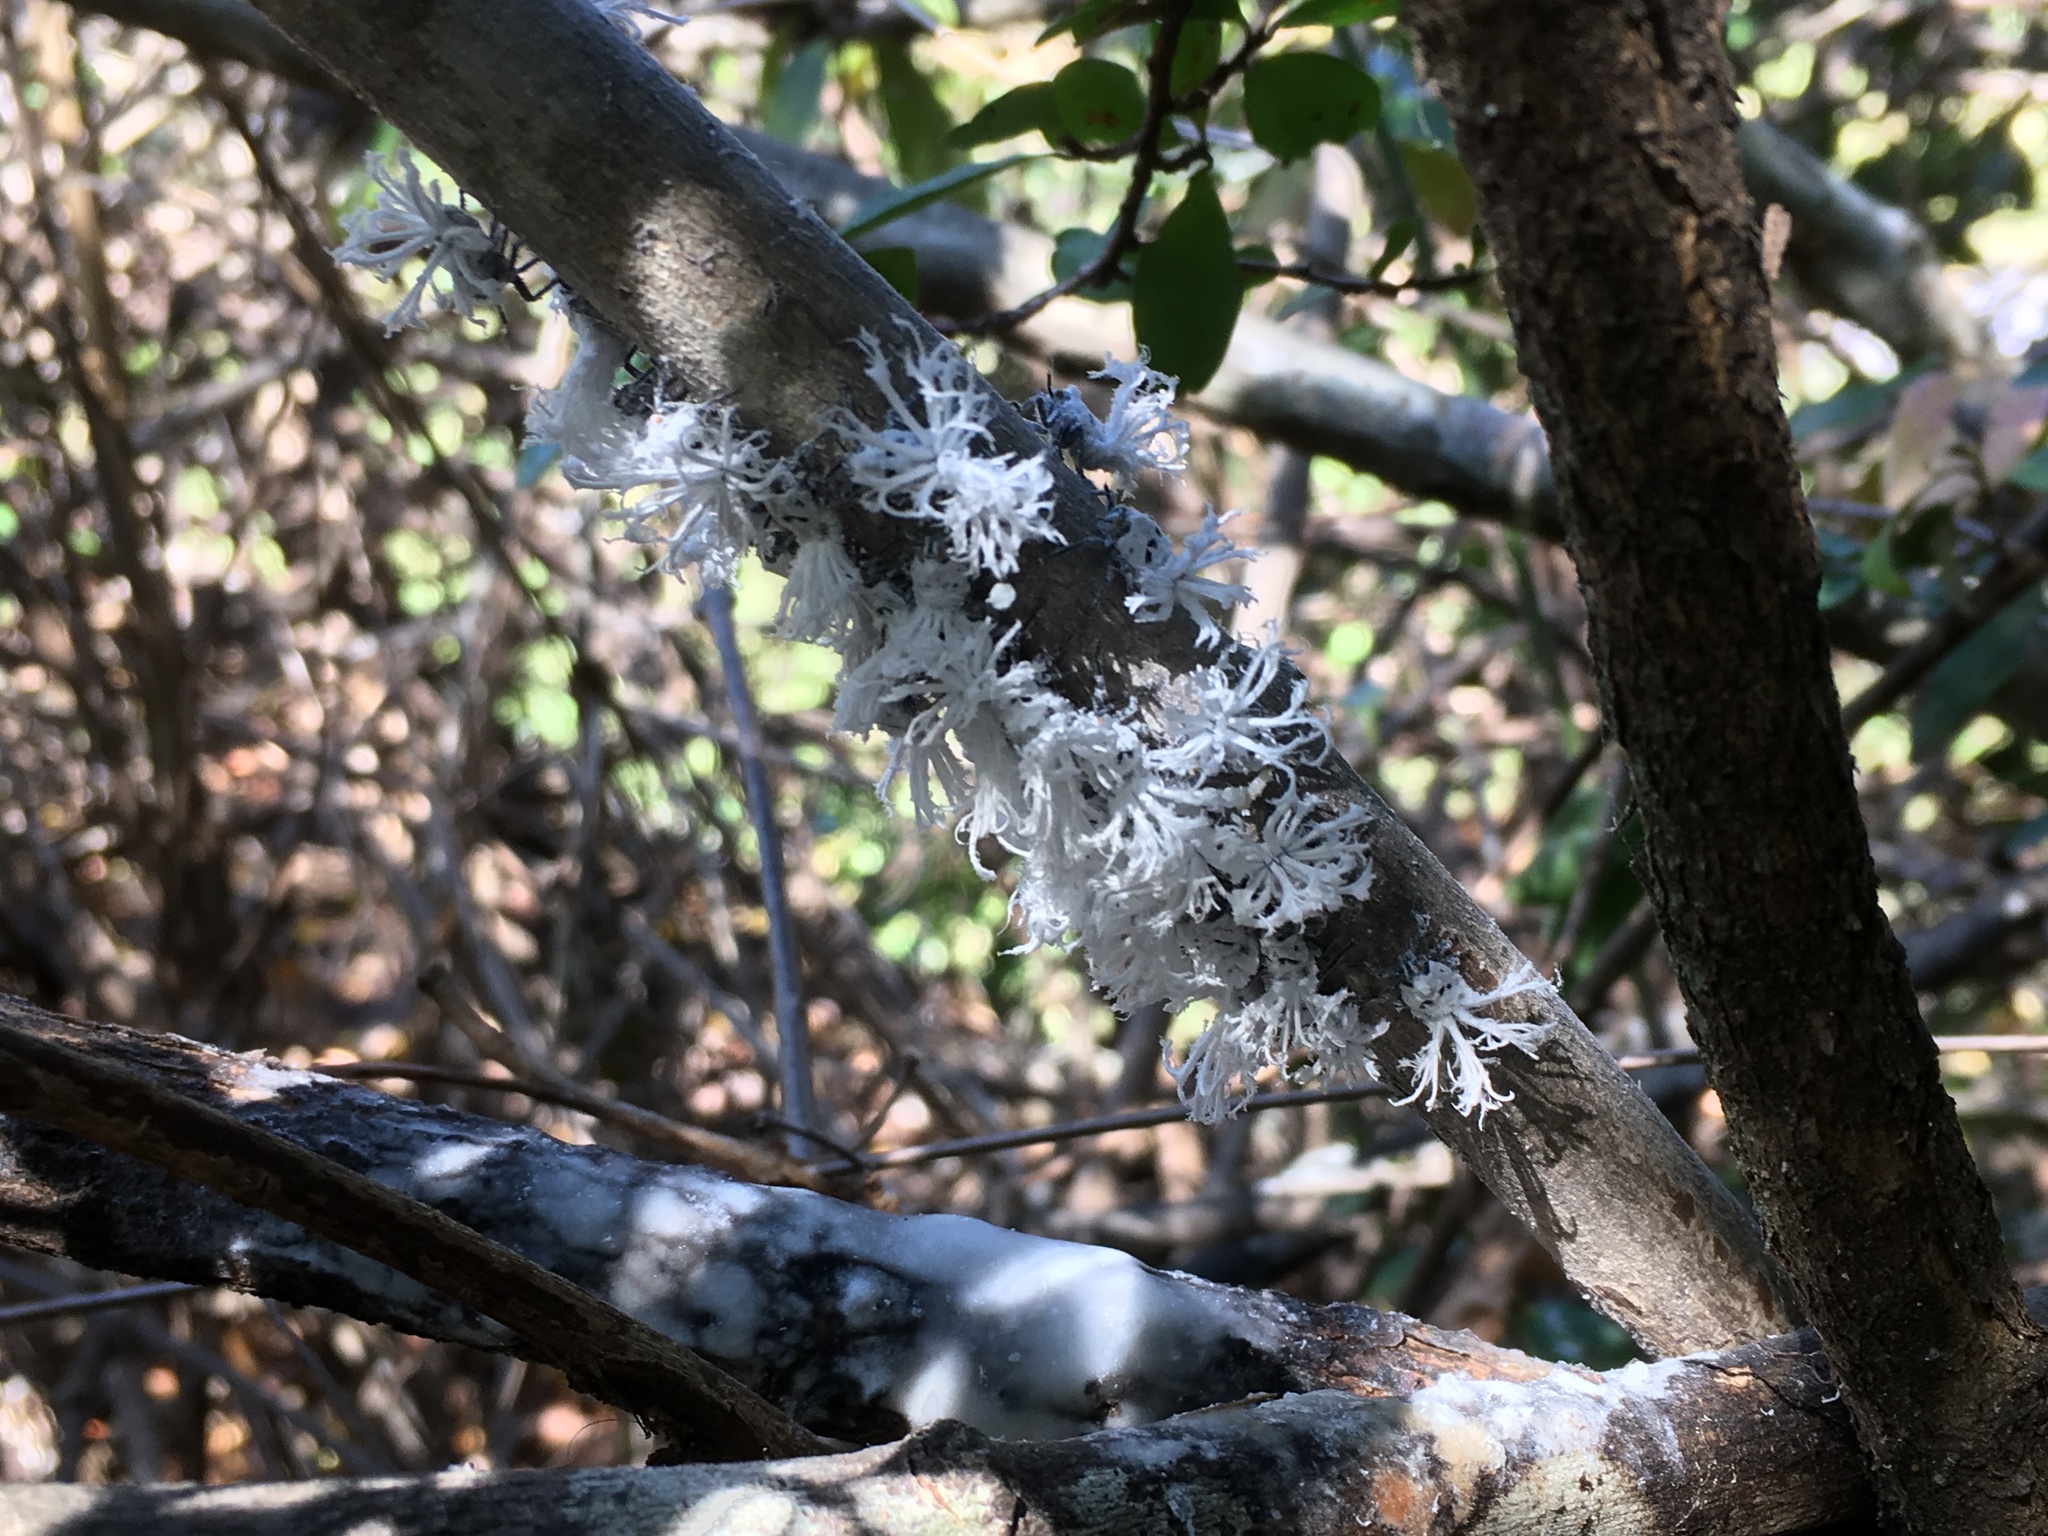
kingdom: Animalia
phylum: Arthropoda
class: Insecta
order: Hemiptera
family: Flatidae
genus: Flatida
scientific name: Flatida rosea
